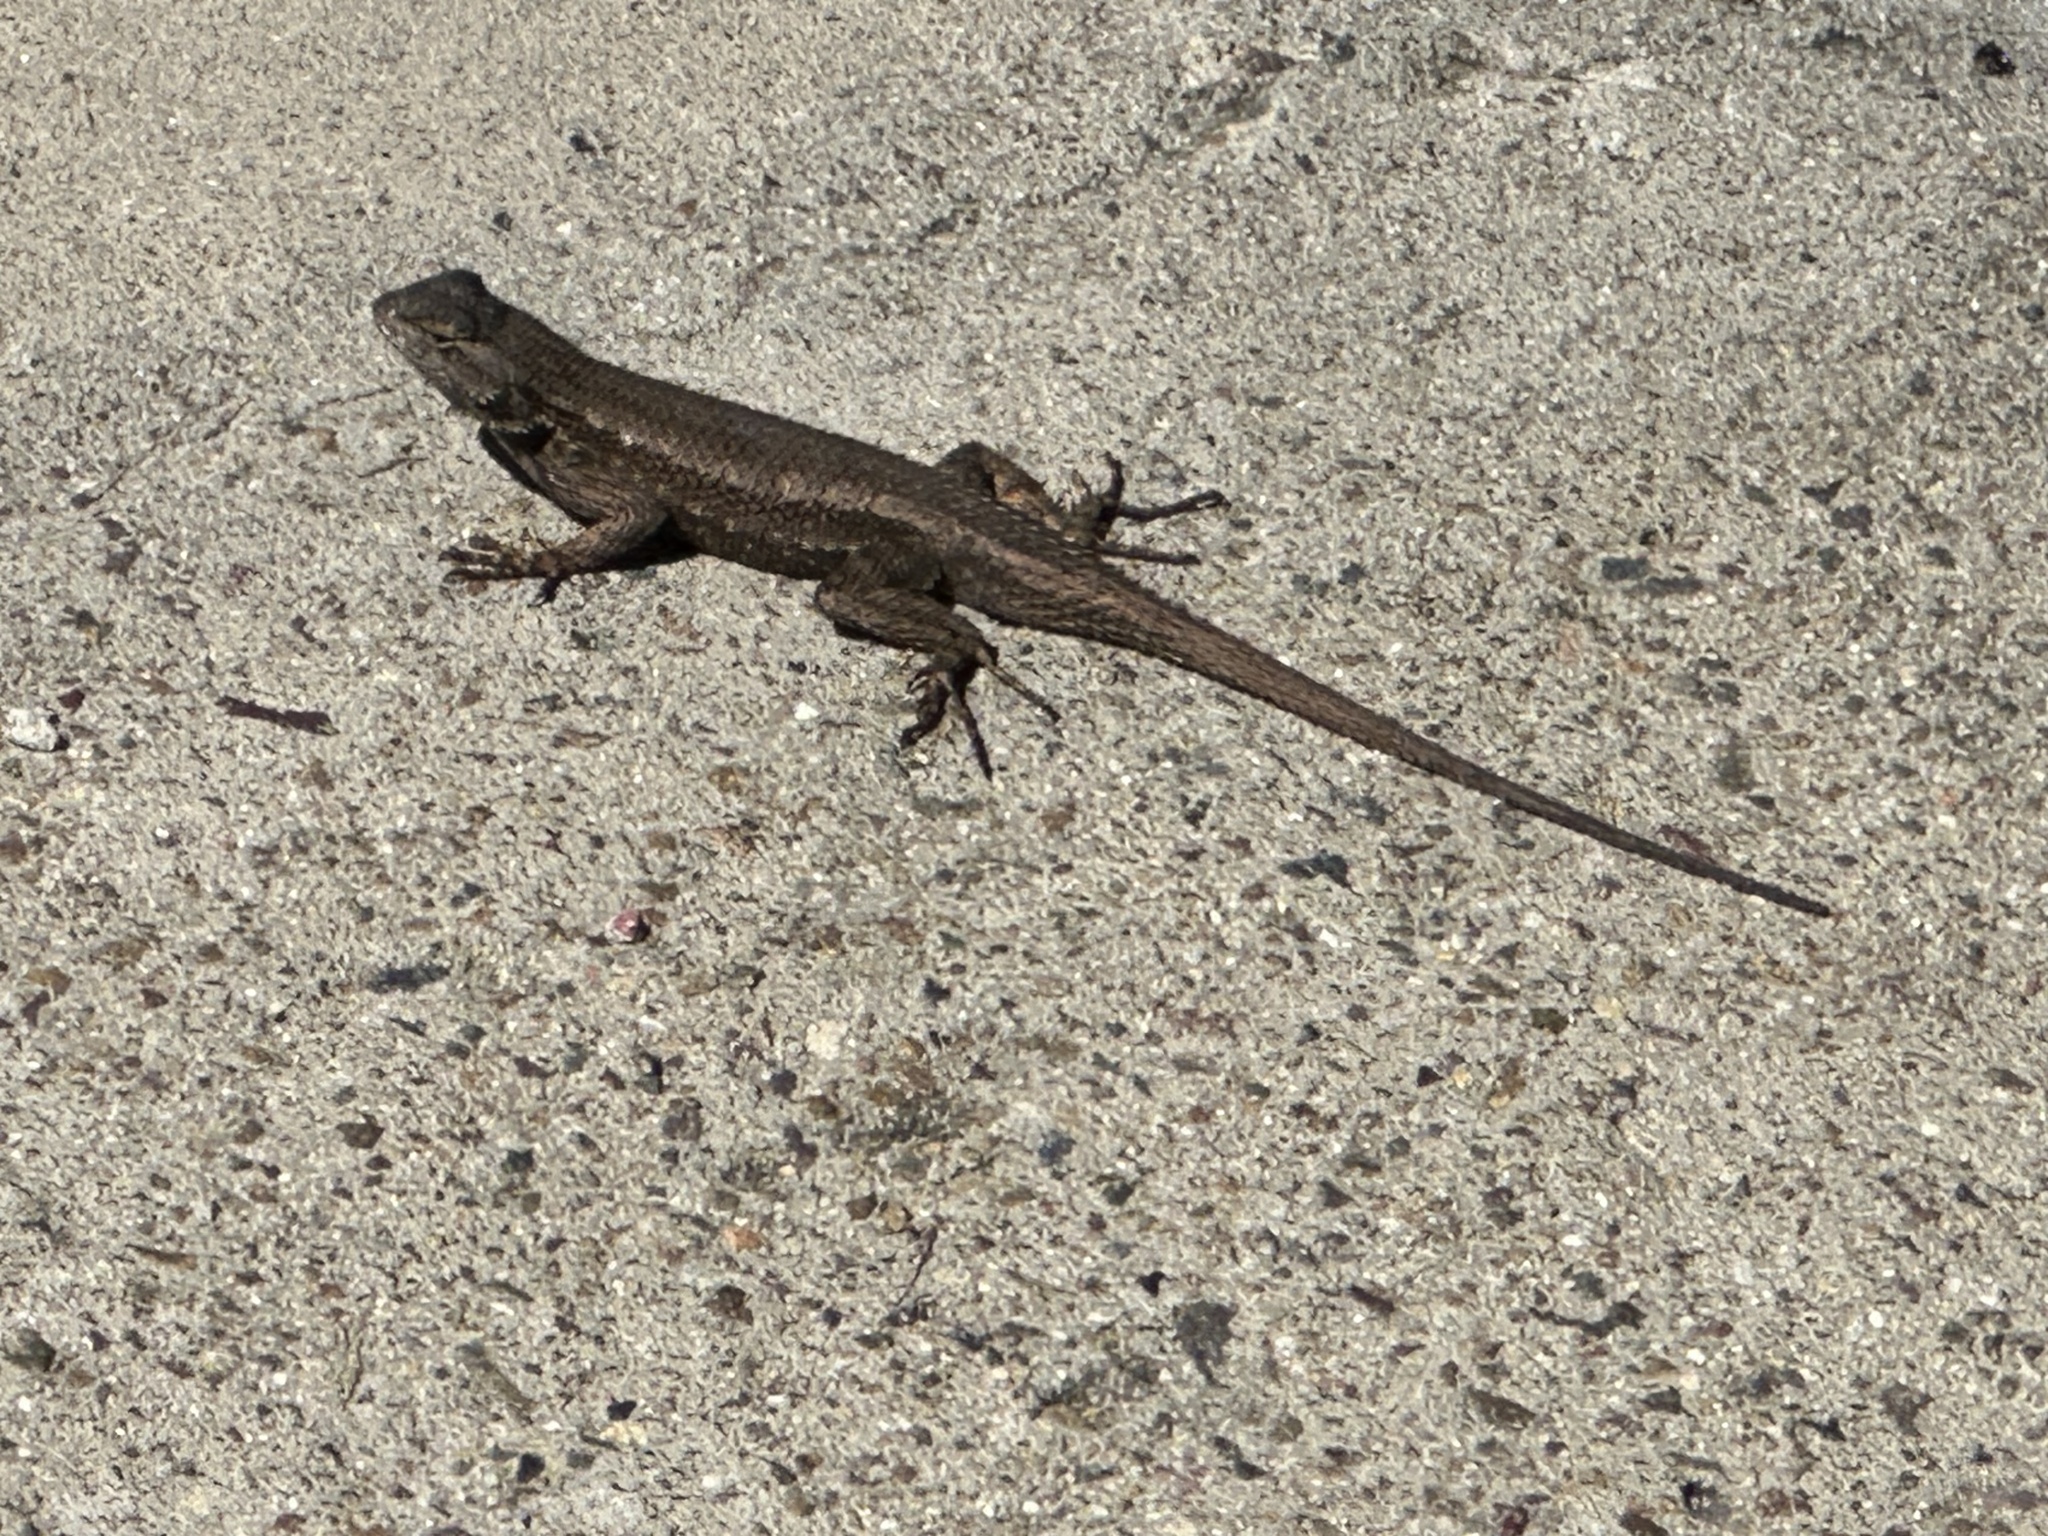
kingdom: Animalia
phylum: Chordata
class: Squamata
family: Phrynosomatidae
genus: Sceloporus
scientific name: Sceloporus occidentalis
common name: Western fence lizard
